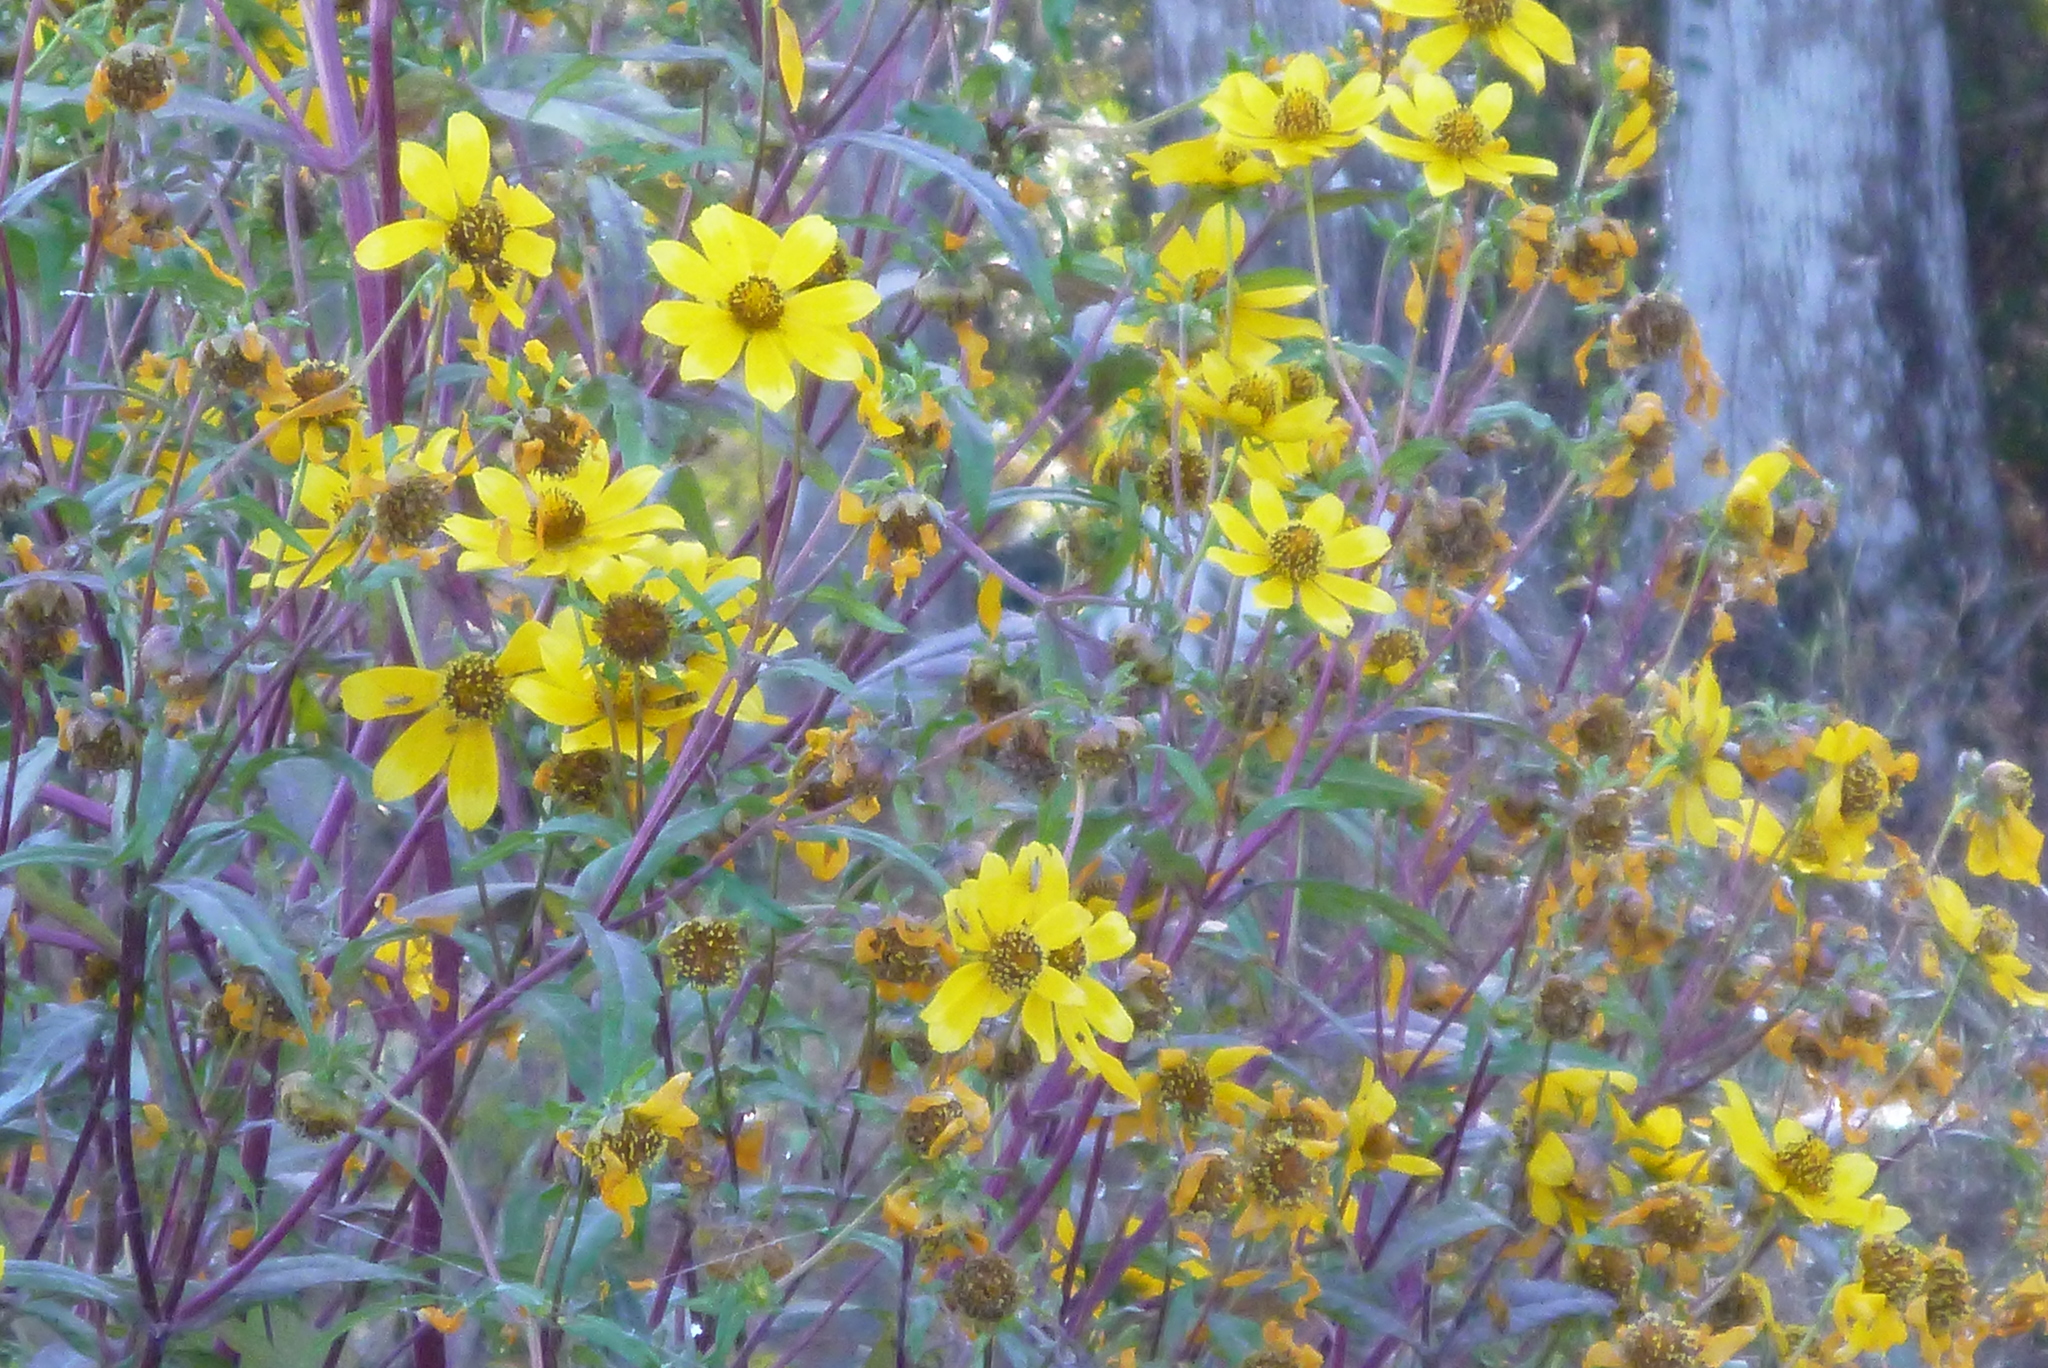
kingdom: Plantae
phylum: Tracheophyta
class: Magnoliopsida
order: Asterales
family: Asteraceae
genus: Bidens
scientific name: Bidens laevis
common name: Larger bur-marigold
